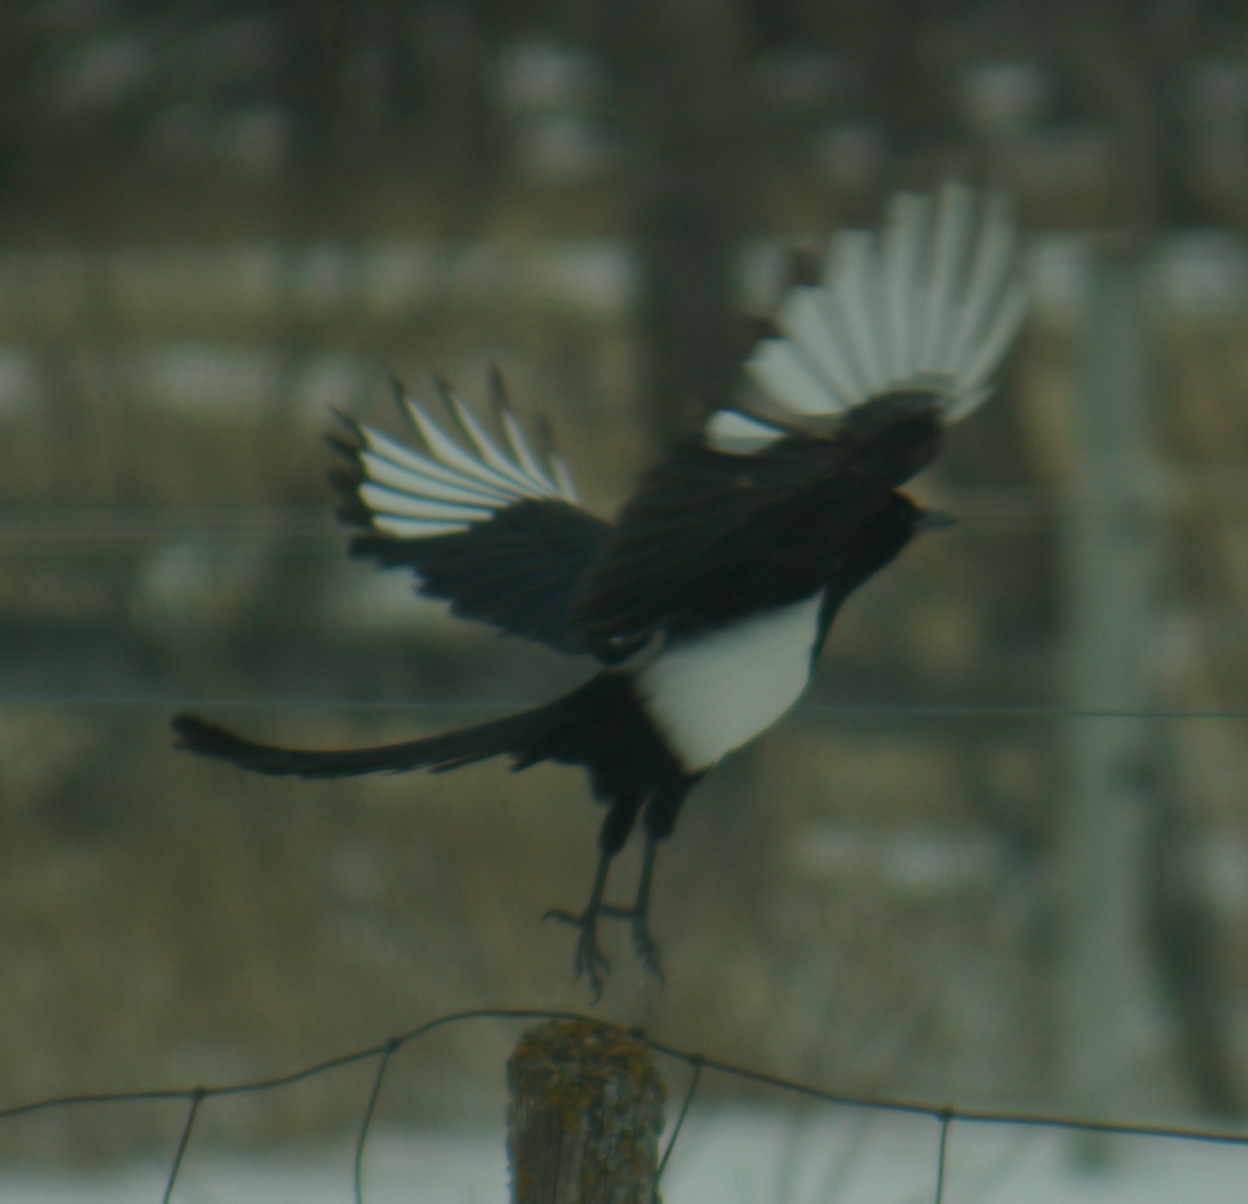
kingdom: Animalia
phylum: Chordata
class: Aves
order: Passeriformes
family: Corvidae
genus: Pica
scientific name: Pica hudsonia
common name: Black-billed magpie
